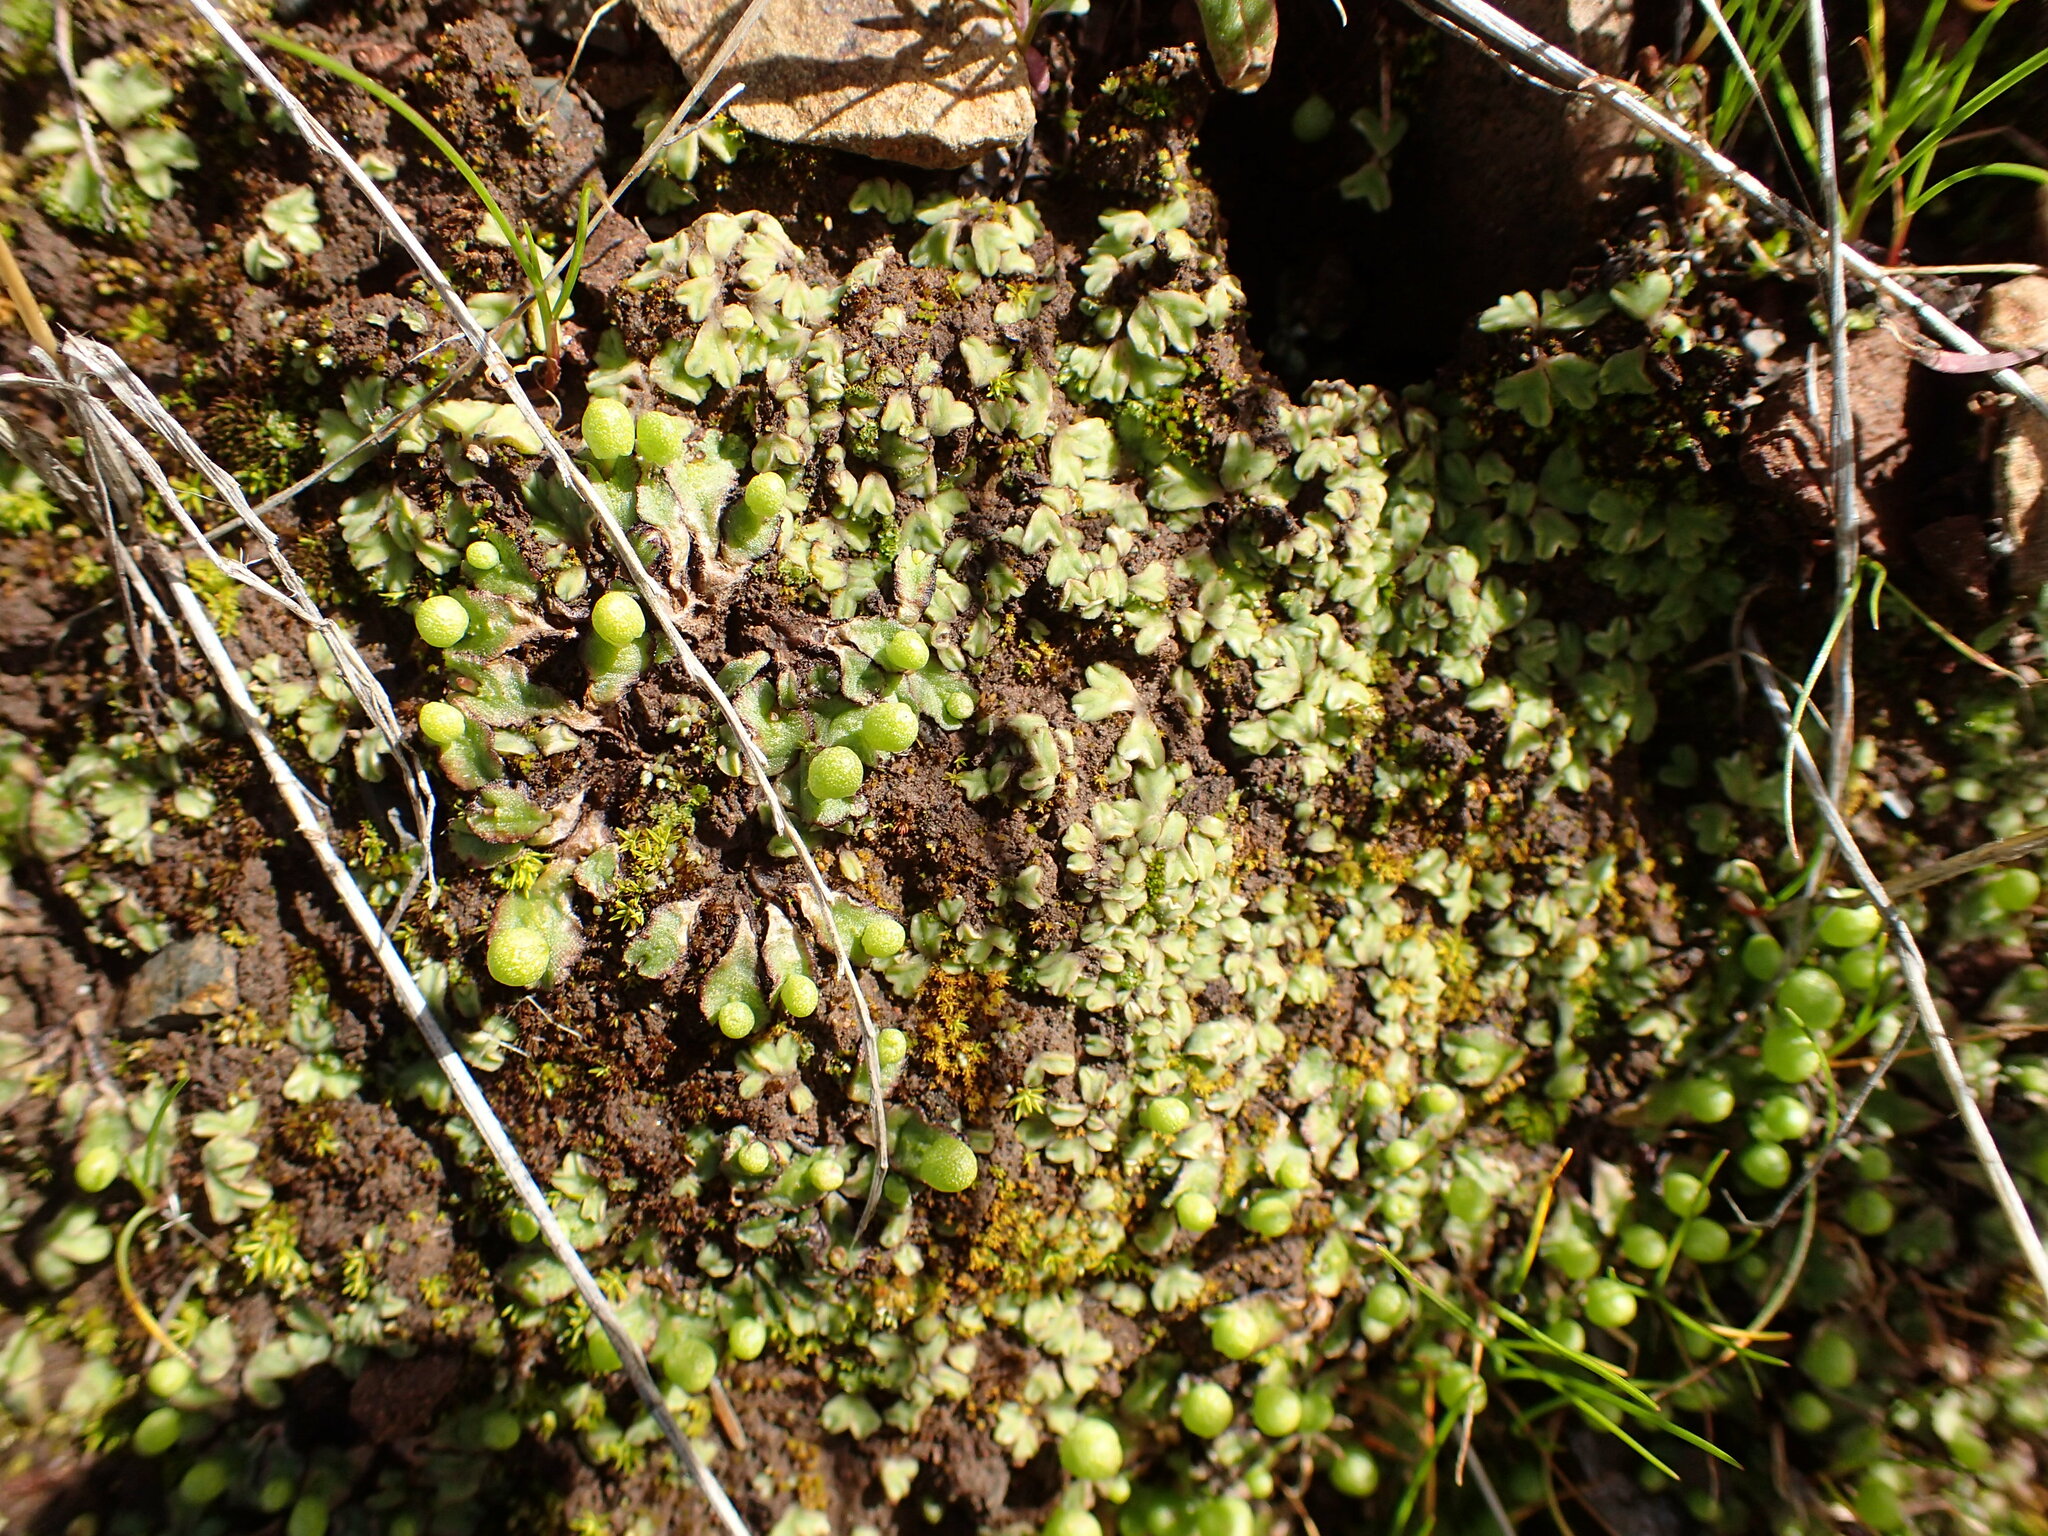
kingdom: Plantae
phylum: Marchantiophyta
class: Marchantiopsida
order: Marchantiales
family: Aytoniaceae
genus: Asterella
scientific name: Asterella palmeri
